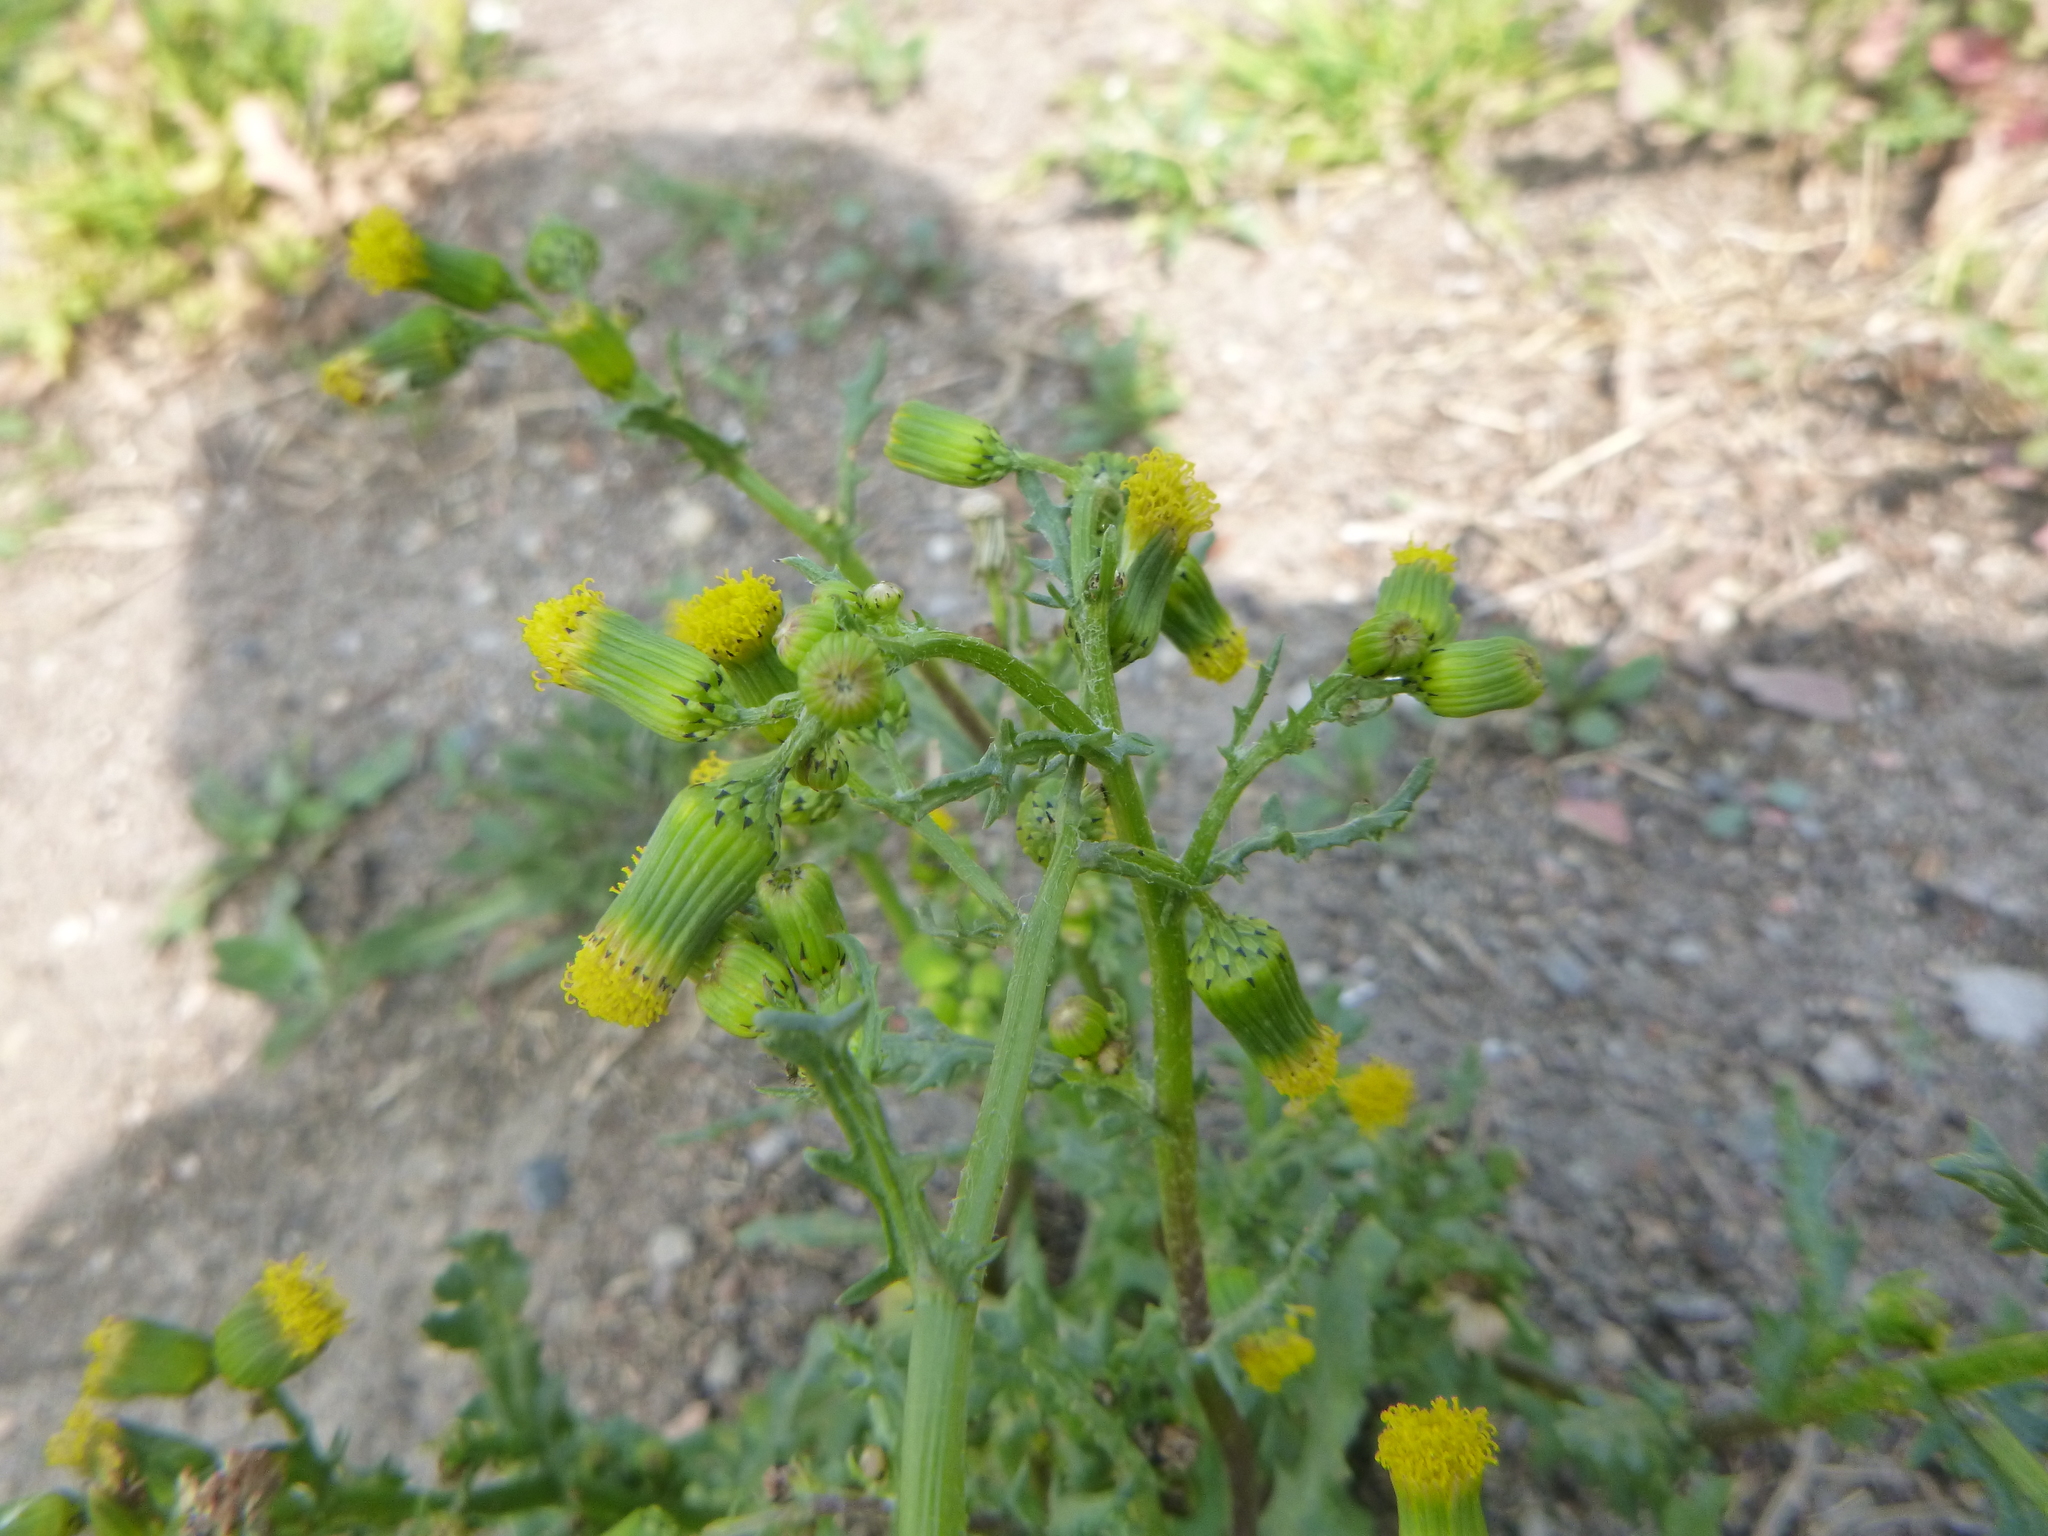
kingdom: Plantae
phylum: Tracheophyta
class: Magnoliopsida
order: Asterales
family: Asteraceae
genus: Senecio
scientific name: Senecio vulgaris
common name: Old-man-in-the-spring
